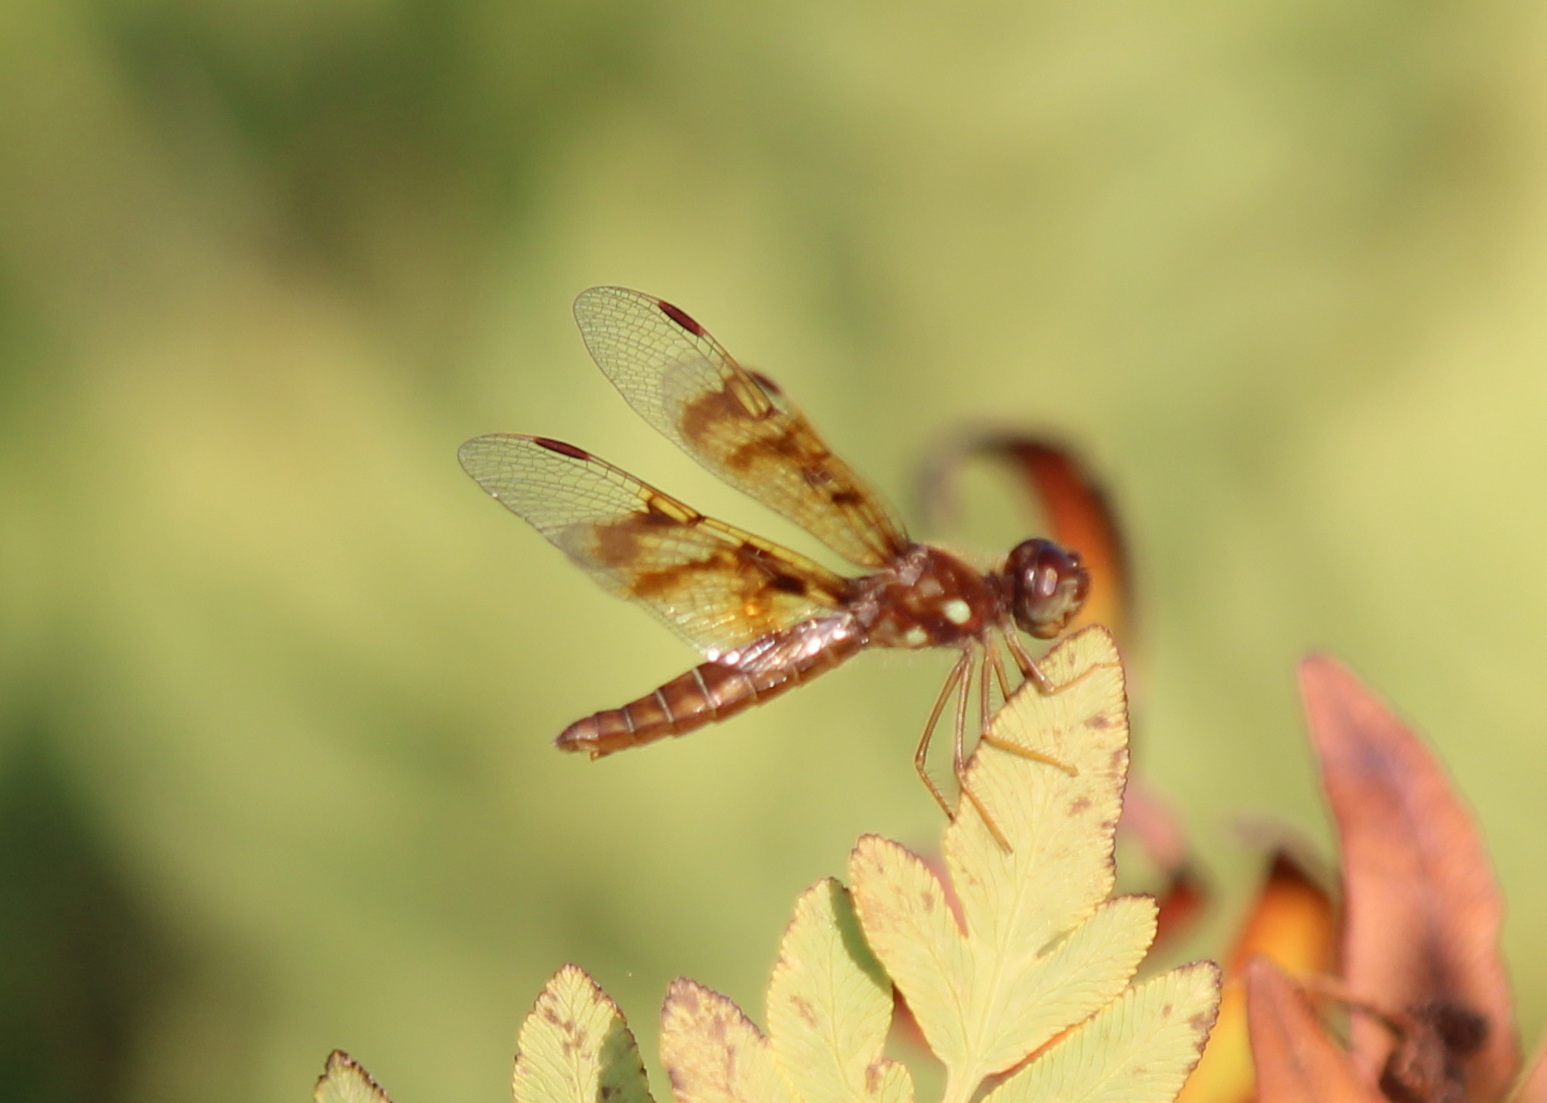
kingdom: Animalia
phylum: Arthropoda
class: Insecta
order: Odonata
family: Libellulidae
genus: Perithemis
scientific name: Perithemis tenera
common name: Eastern amberwing
